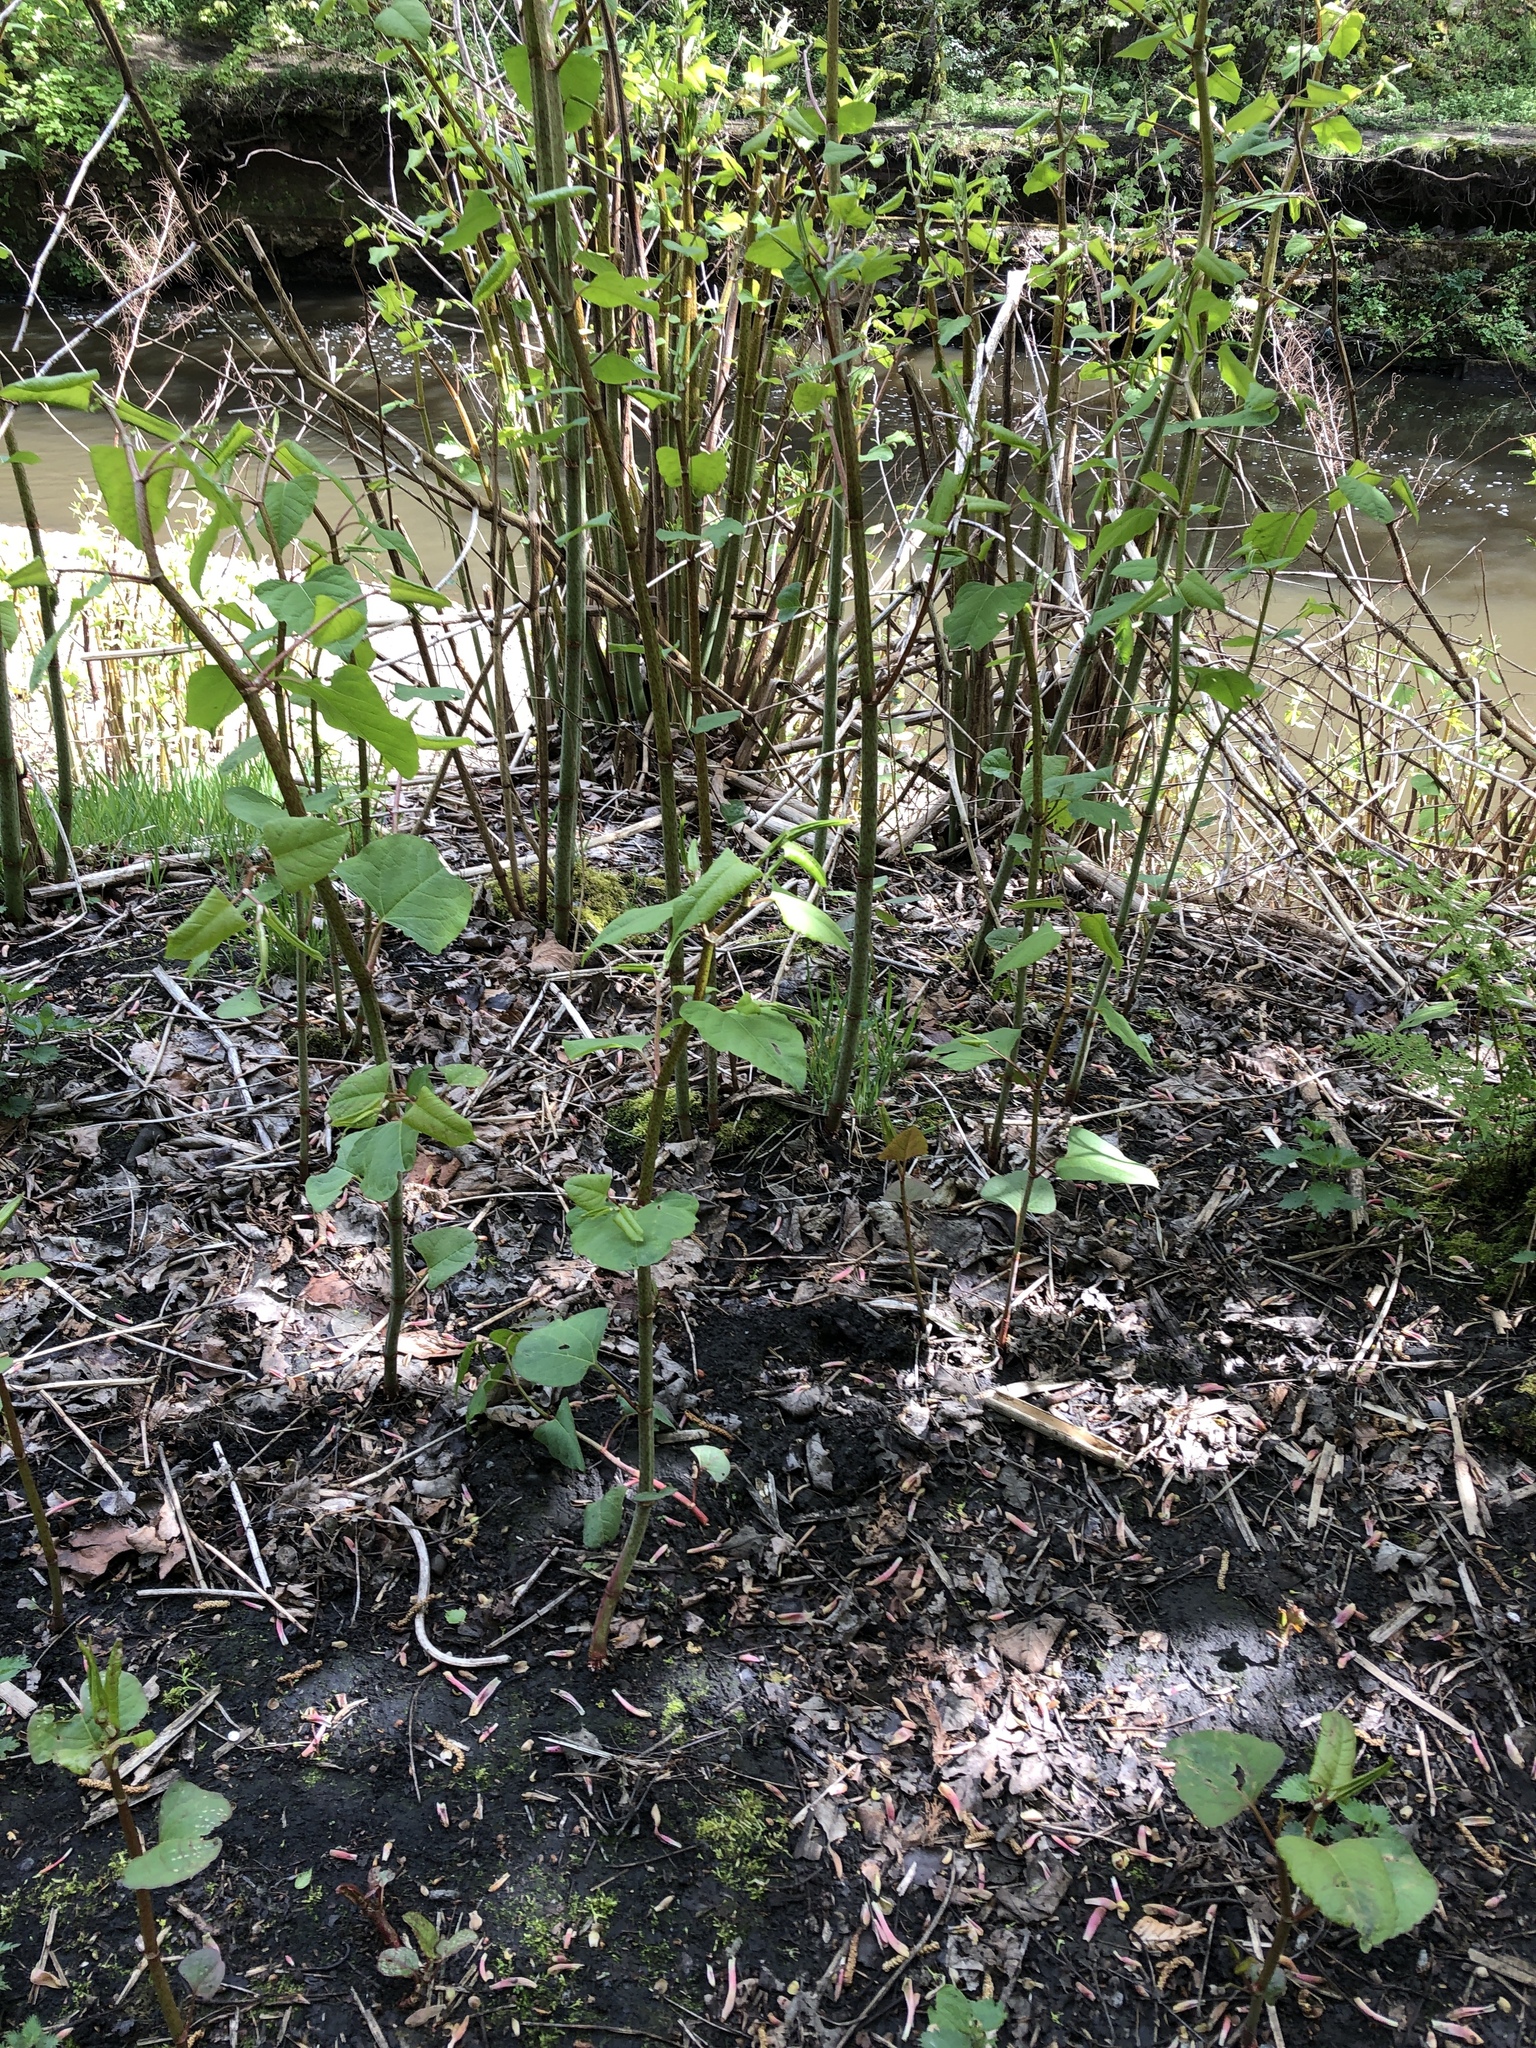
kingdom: Plantae
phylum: Tracheophyta
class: Magnoliopsida
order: Caryophyllales
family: Polygonaceae
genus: Reynoutria
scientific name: Reynoutria japonica
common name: Japanese knotweed
